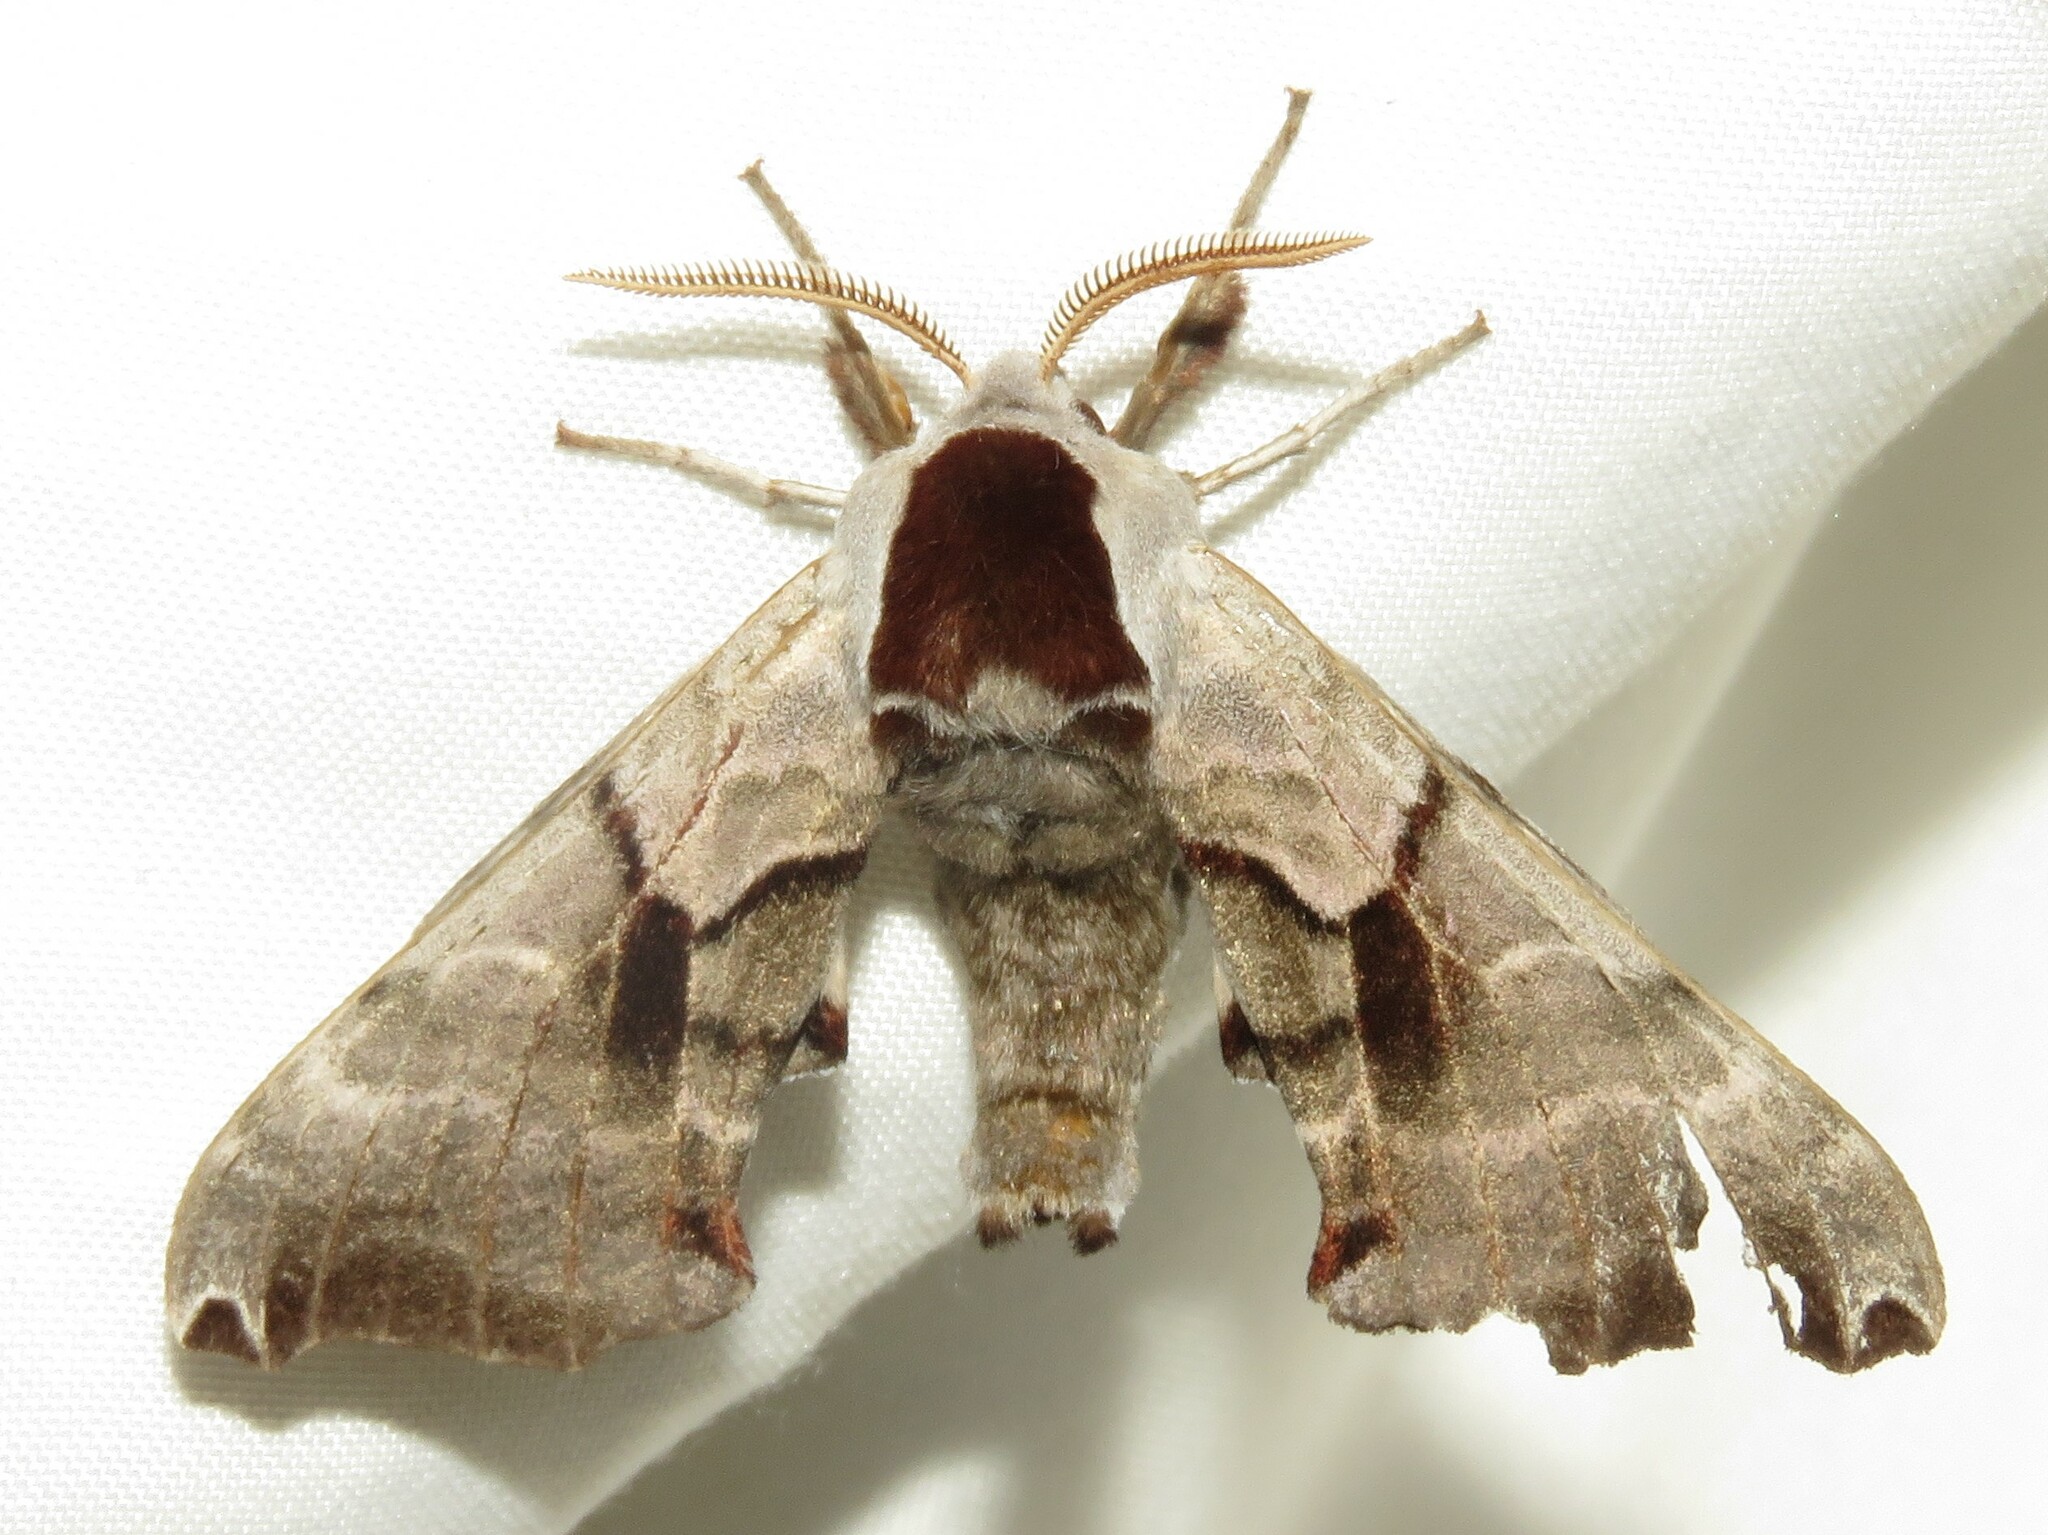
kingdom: Animalia
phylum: Arthropoda
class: Insecta
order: Lepidoptera
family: Sphingidae
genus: Smerinthus
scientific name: Smerinthus jamaicensis
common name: Twin spotted sphinx
